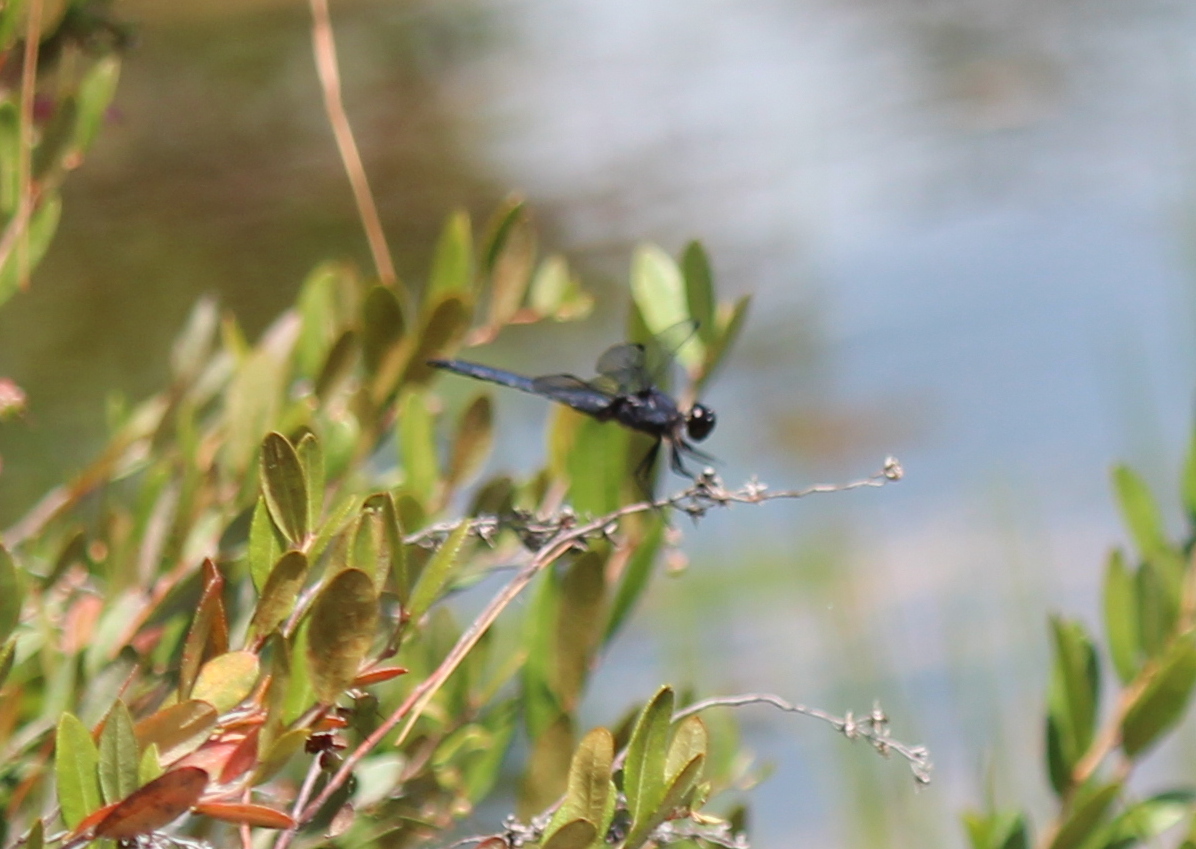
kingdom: Animalia
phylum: Arthropoda
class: Insecta
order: Odonata
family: Libellulidae
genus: Libellula
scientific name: Libellula incesta
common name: Slaty skimmer
